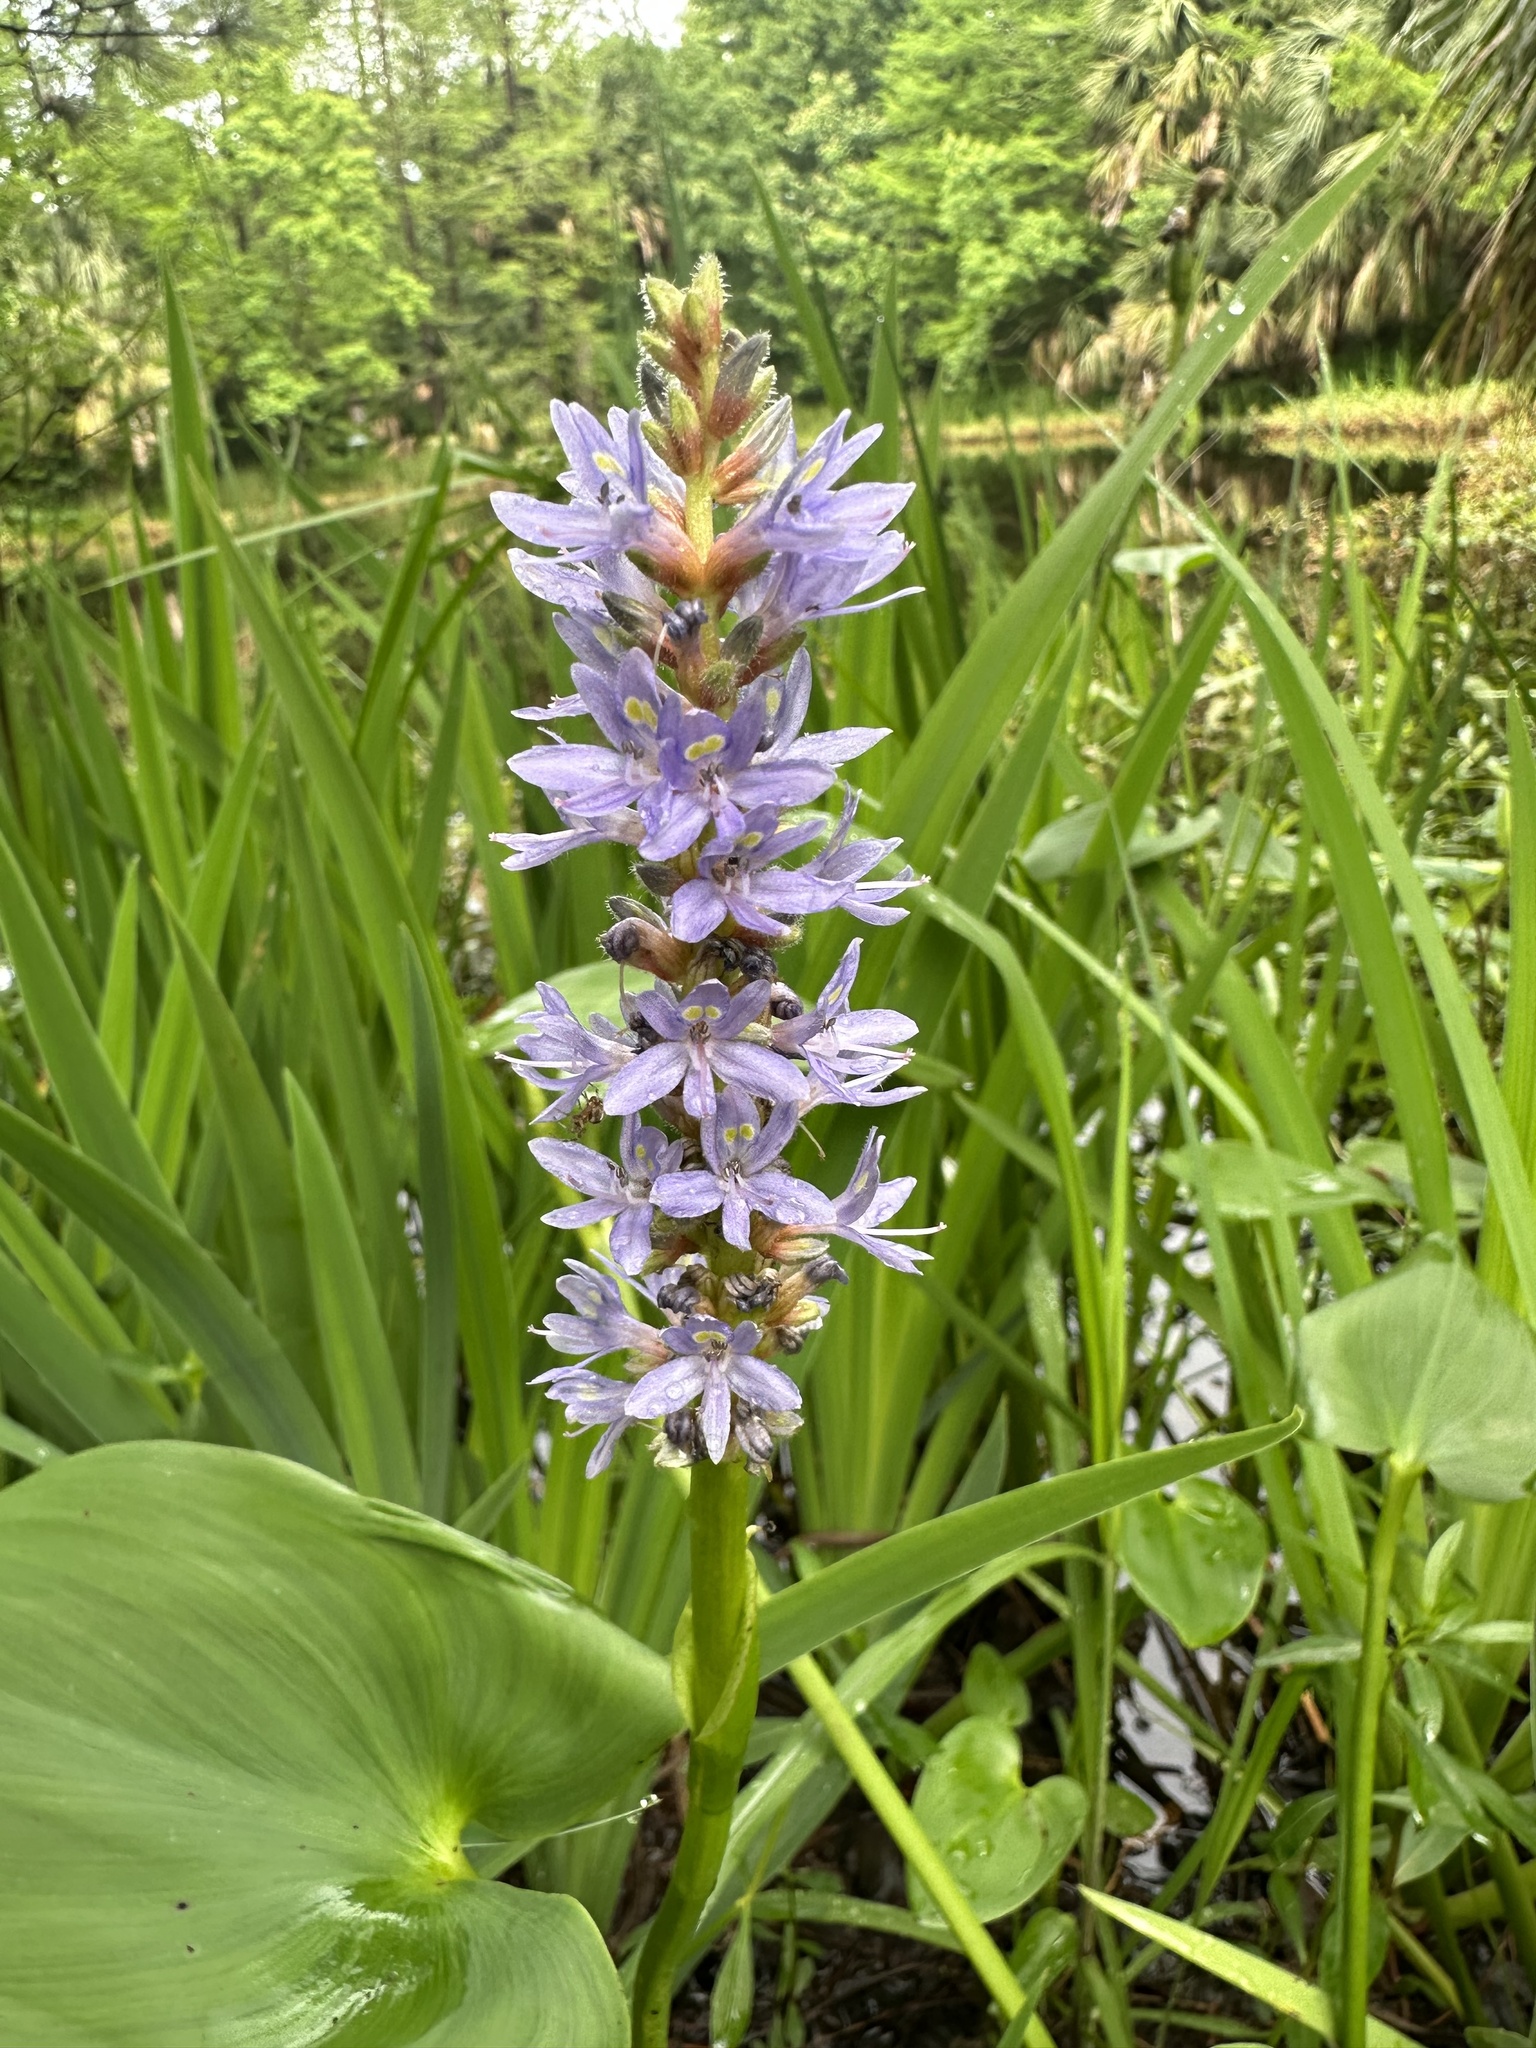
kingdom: Plantae
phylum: Tracheophyta
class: Liliopsida
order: Commelinales
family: Pontederiaceae
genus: Pontederia
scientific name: Pontederia cordata
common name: Pickerelweed
